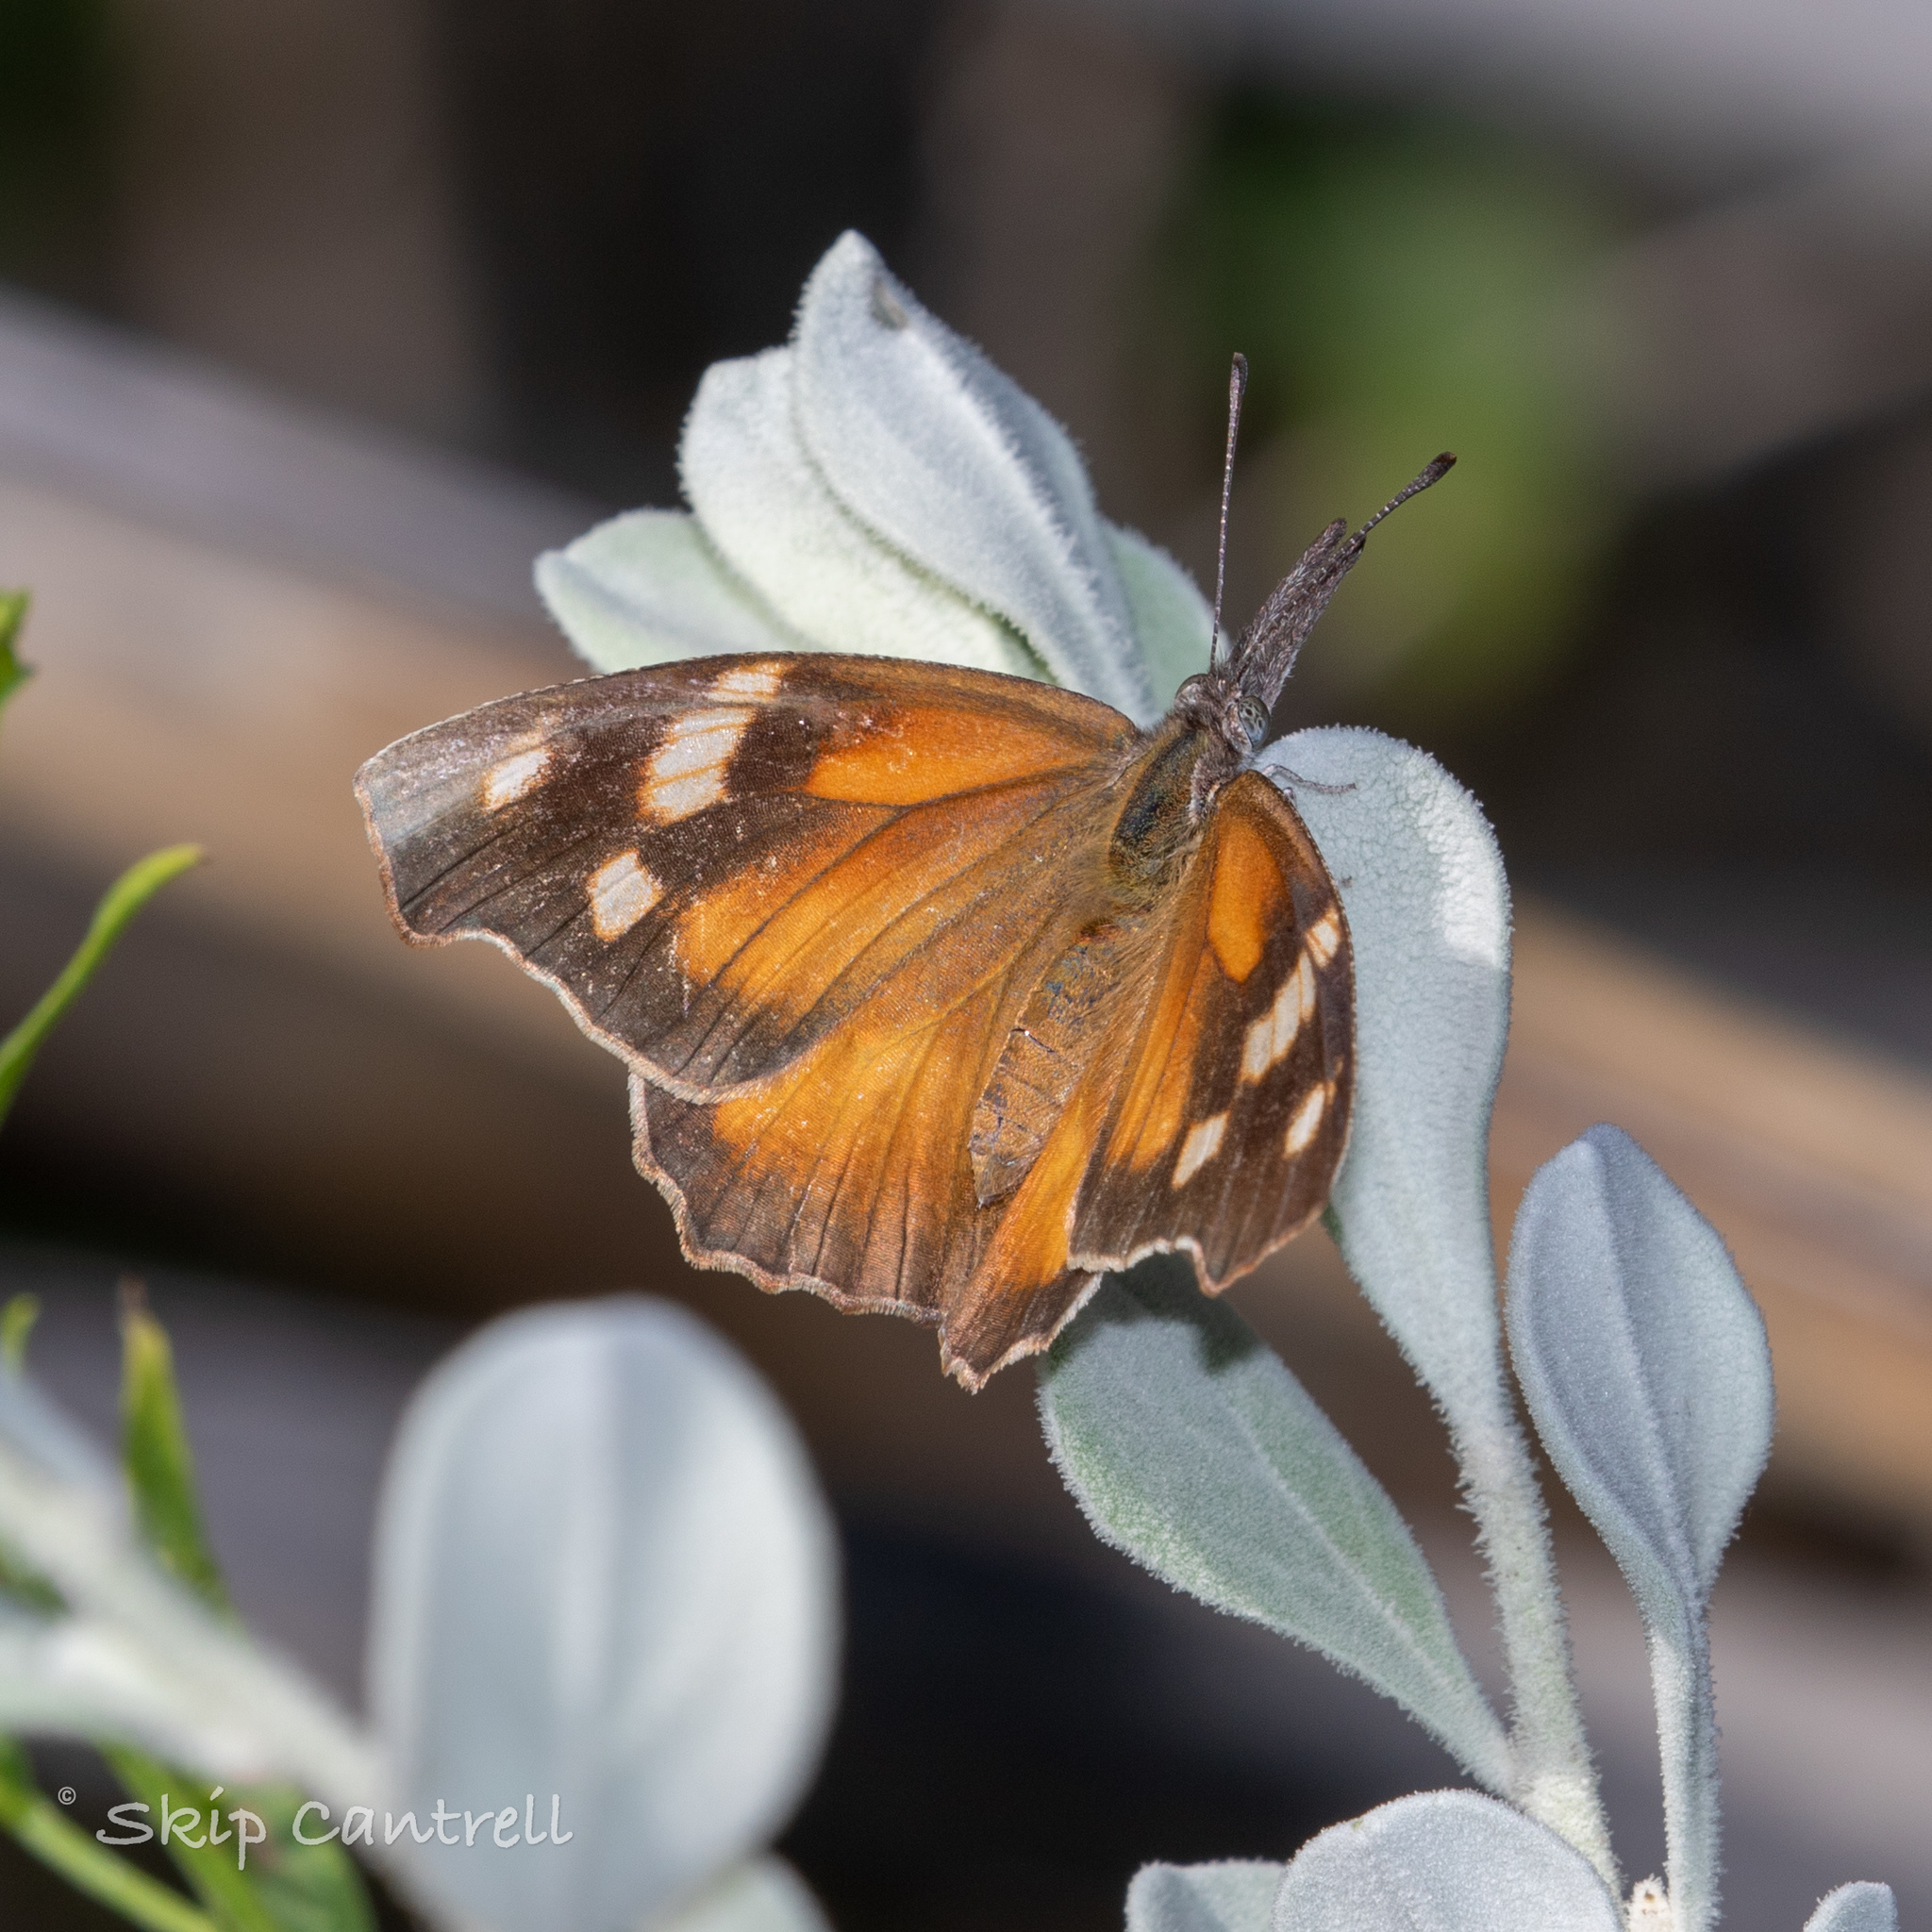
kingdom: Animalia
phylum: Arthropoda
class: Insecta
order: Lepidoptera
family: Nymphalidae
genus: Libytheana
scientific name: Libytheana carinenta
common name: American snout
